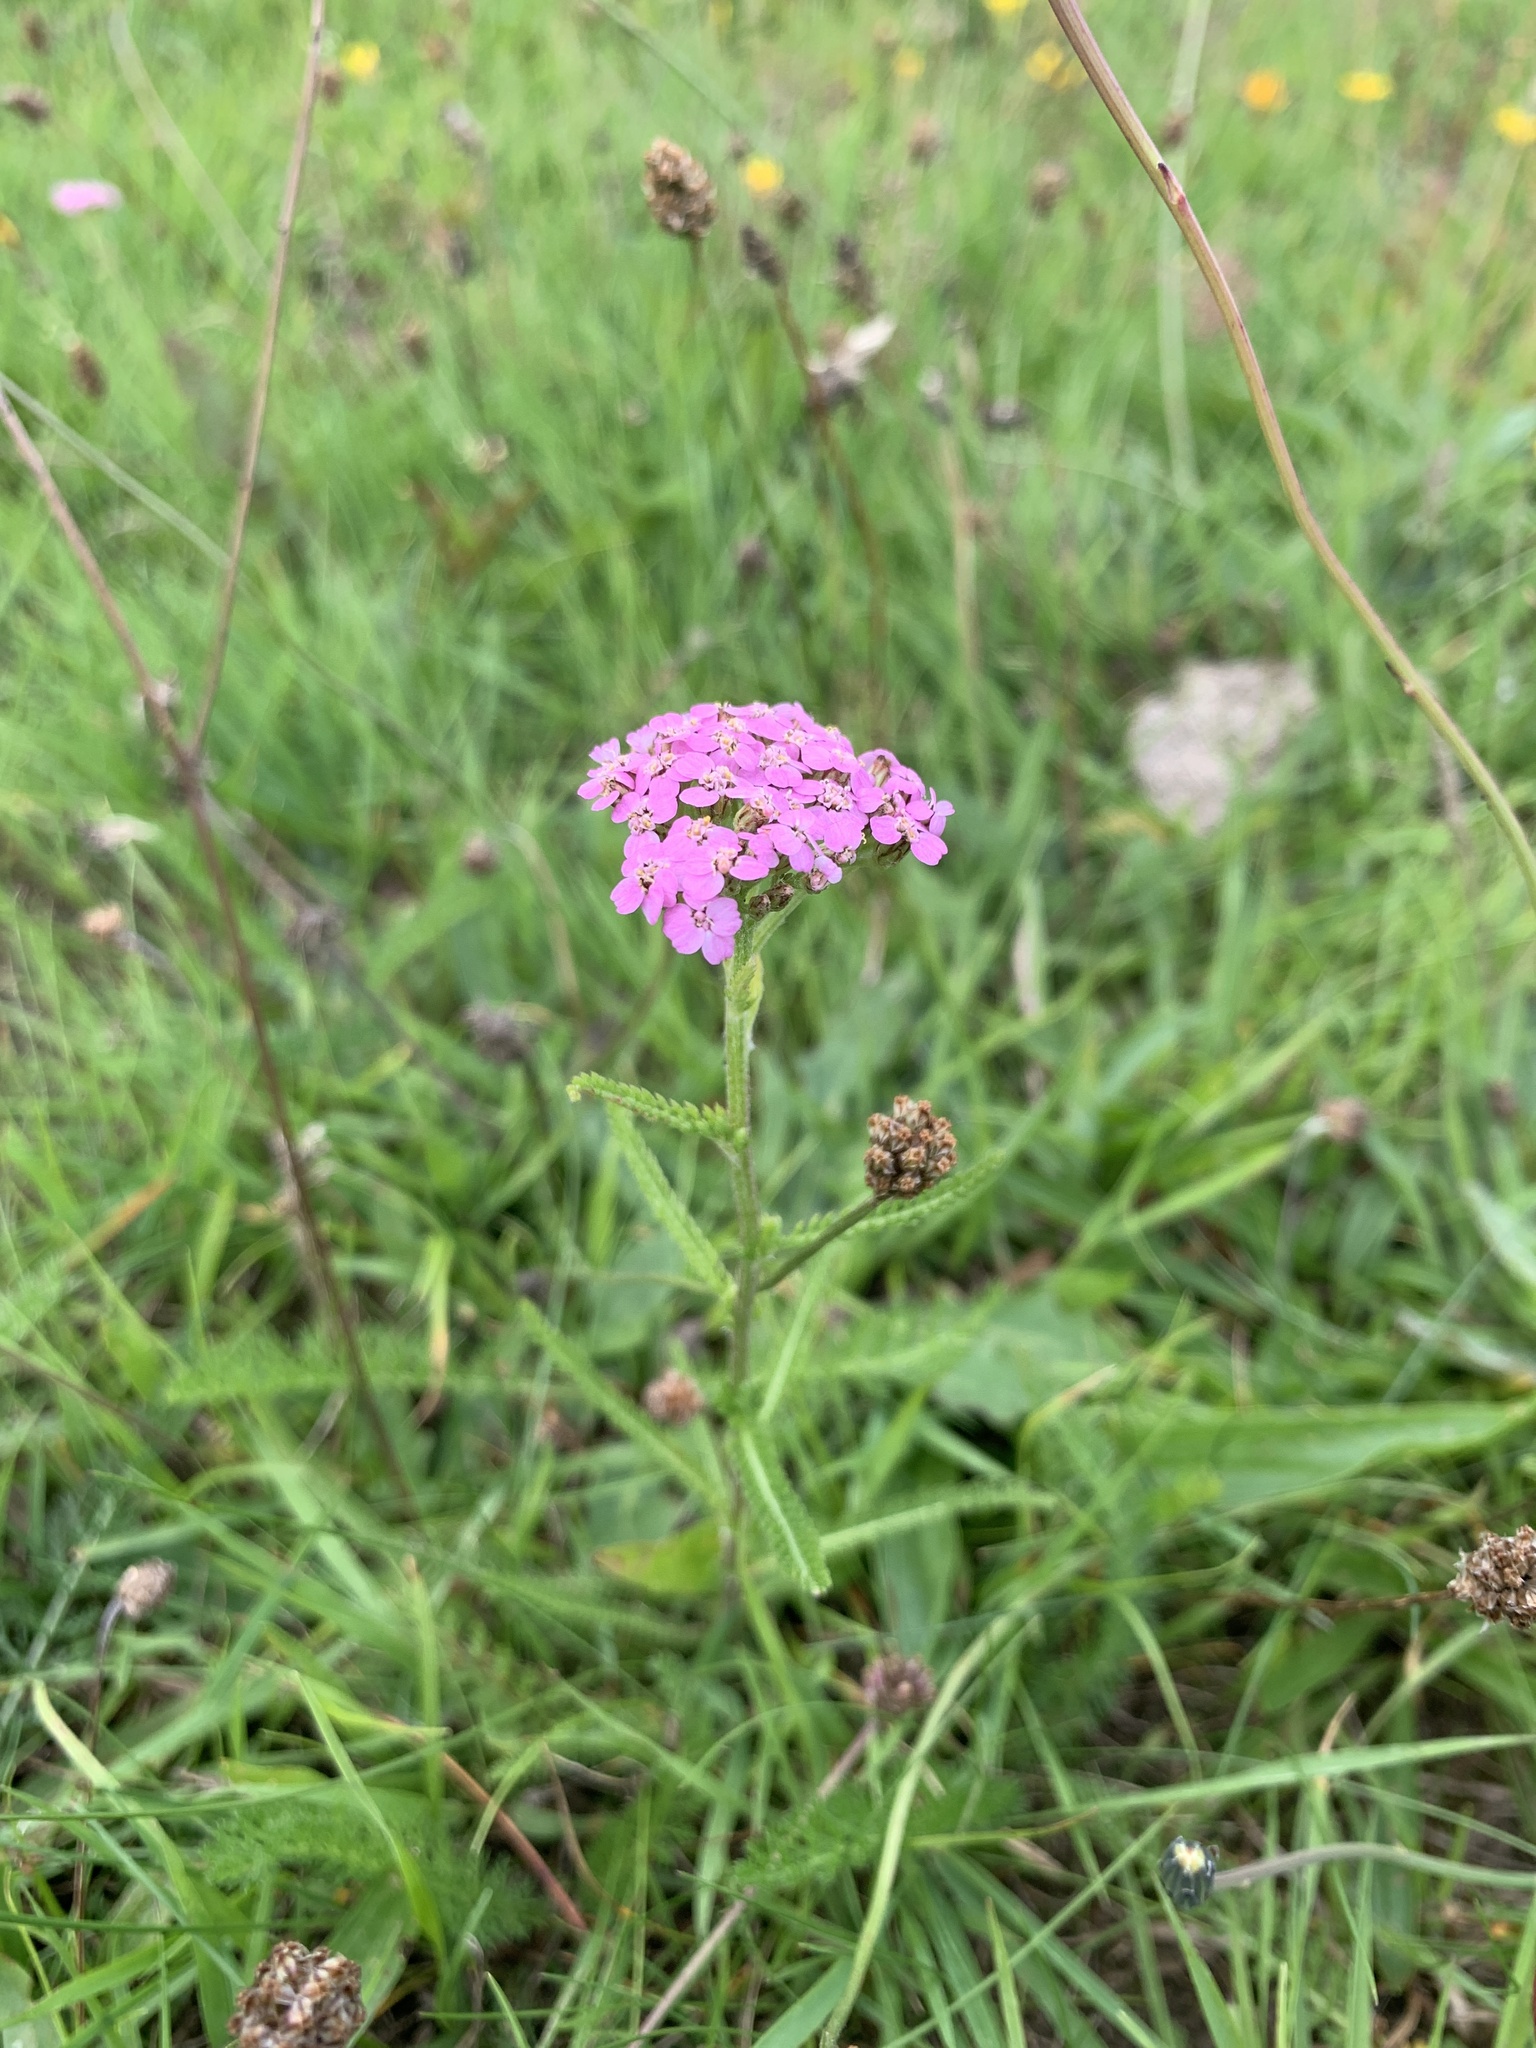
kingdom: Plantae
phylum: Tracheophyta
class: Magnoliopsida
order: Asterales
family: Asteraceae
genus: Achillea
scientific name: Achillea millefolium
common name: Yarrow
